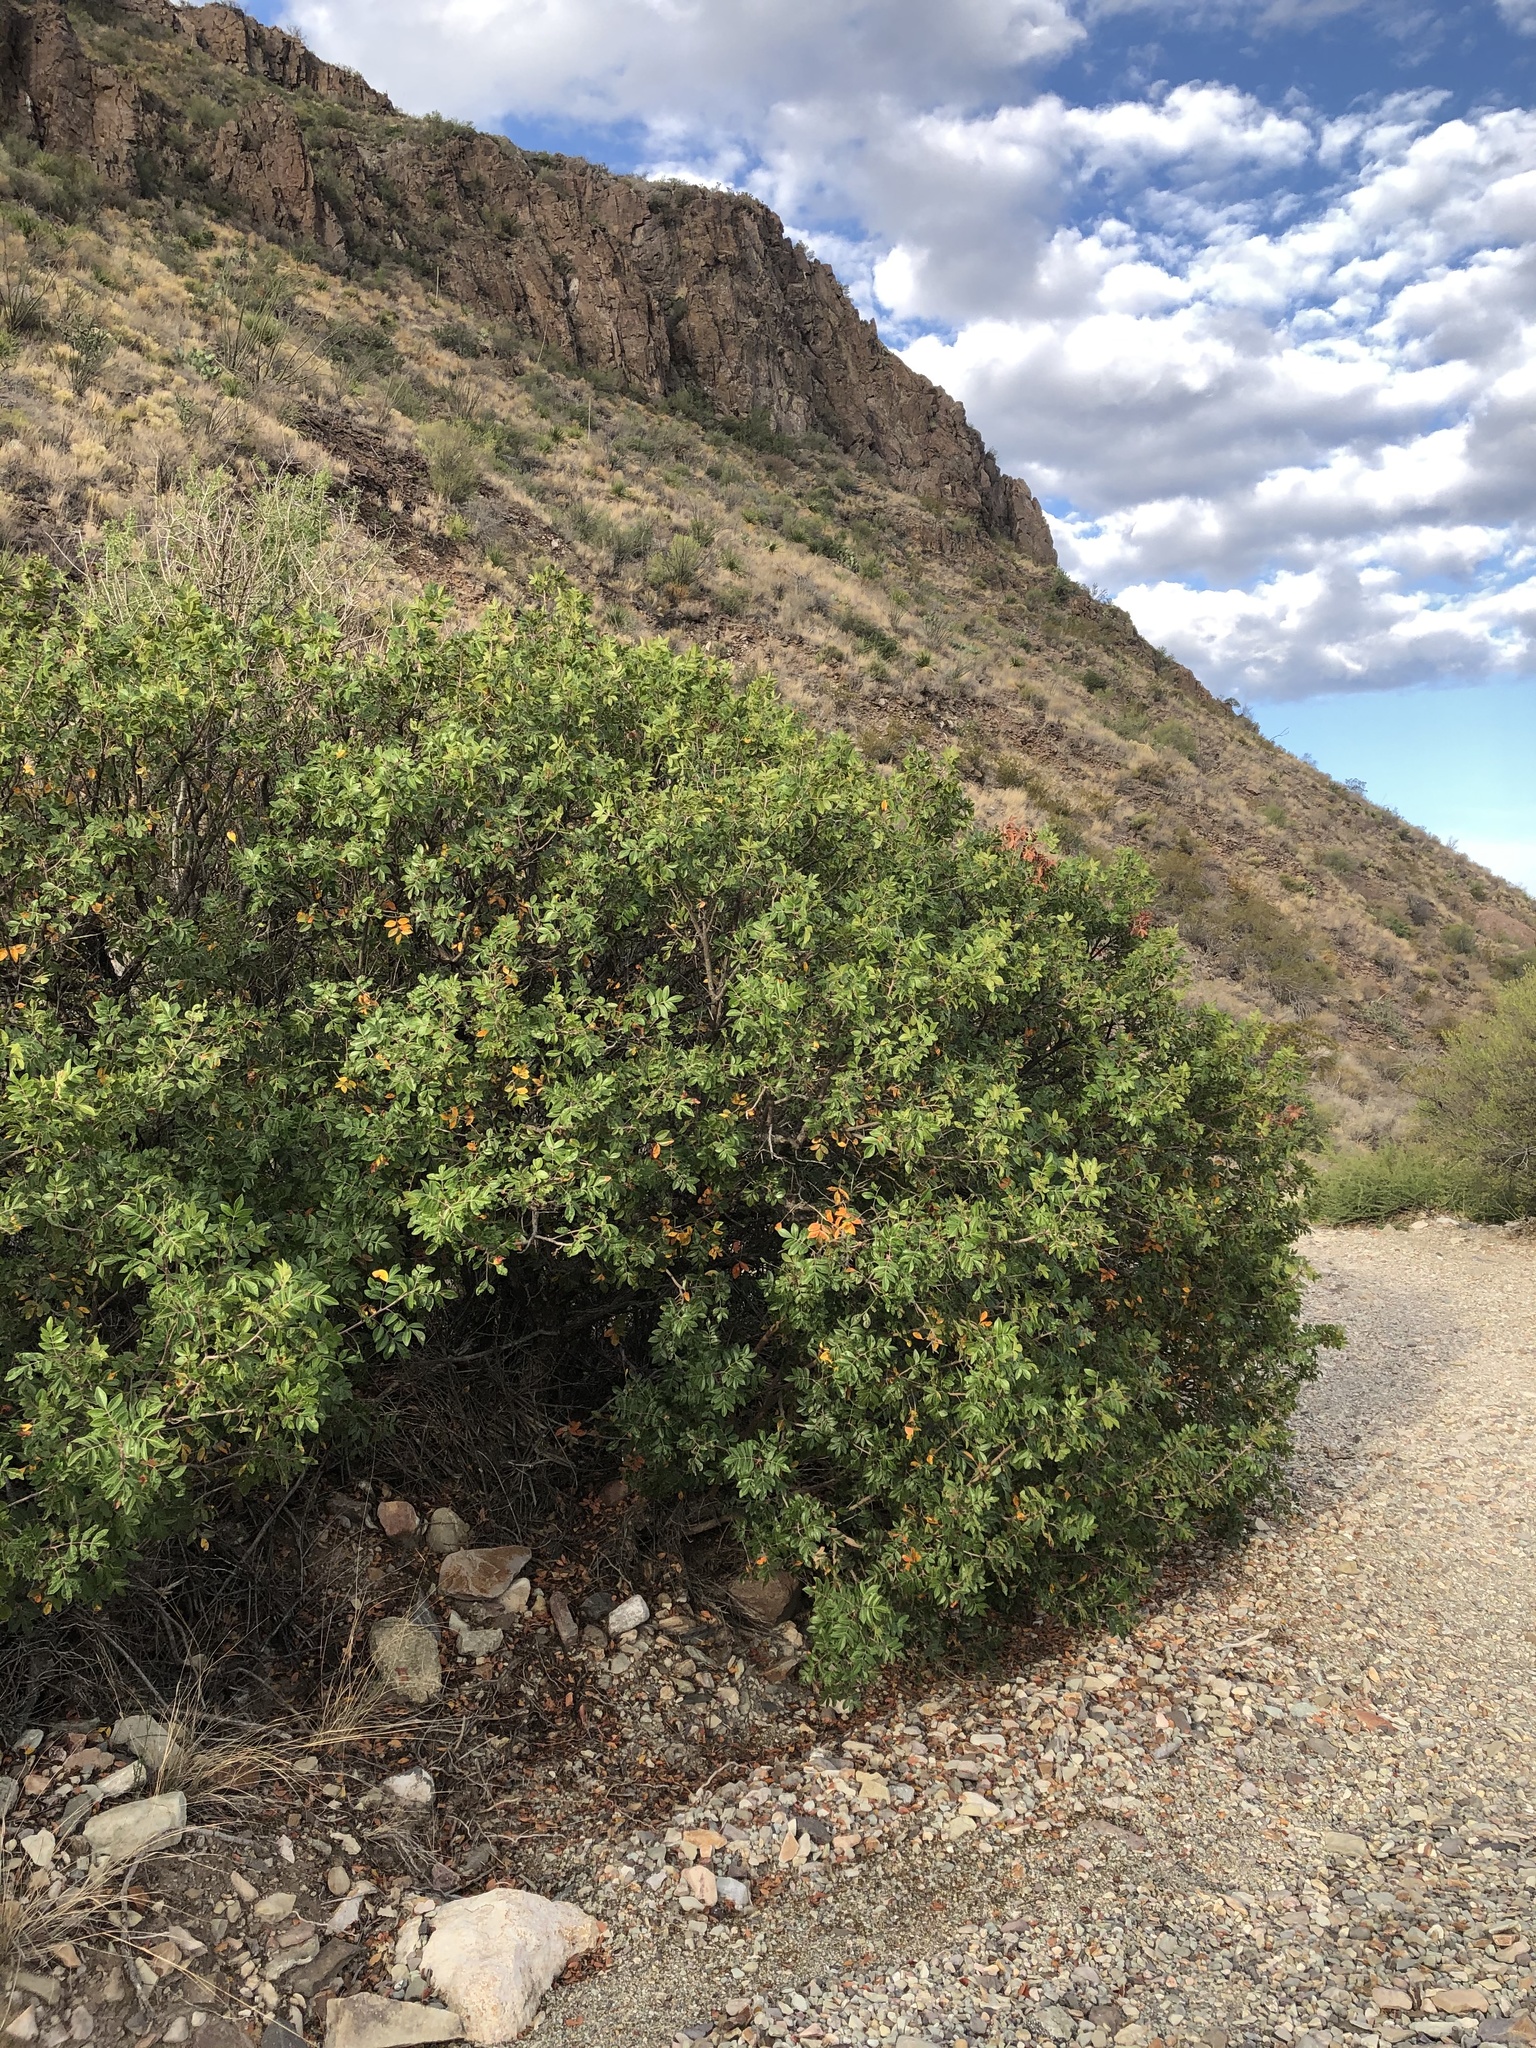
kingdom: Plantae
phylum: Tracheophyta
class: Magnoliopsida
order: Sapindales
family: Anacardiaceae
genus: Rhus
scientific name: Rhus virens
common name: Evergreen sumac
